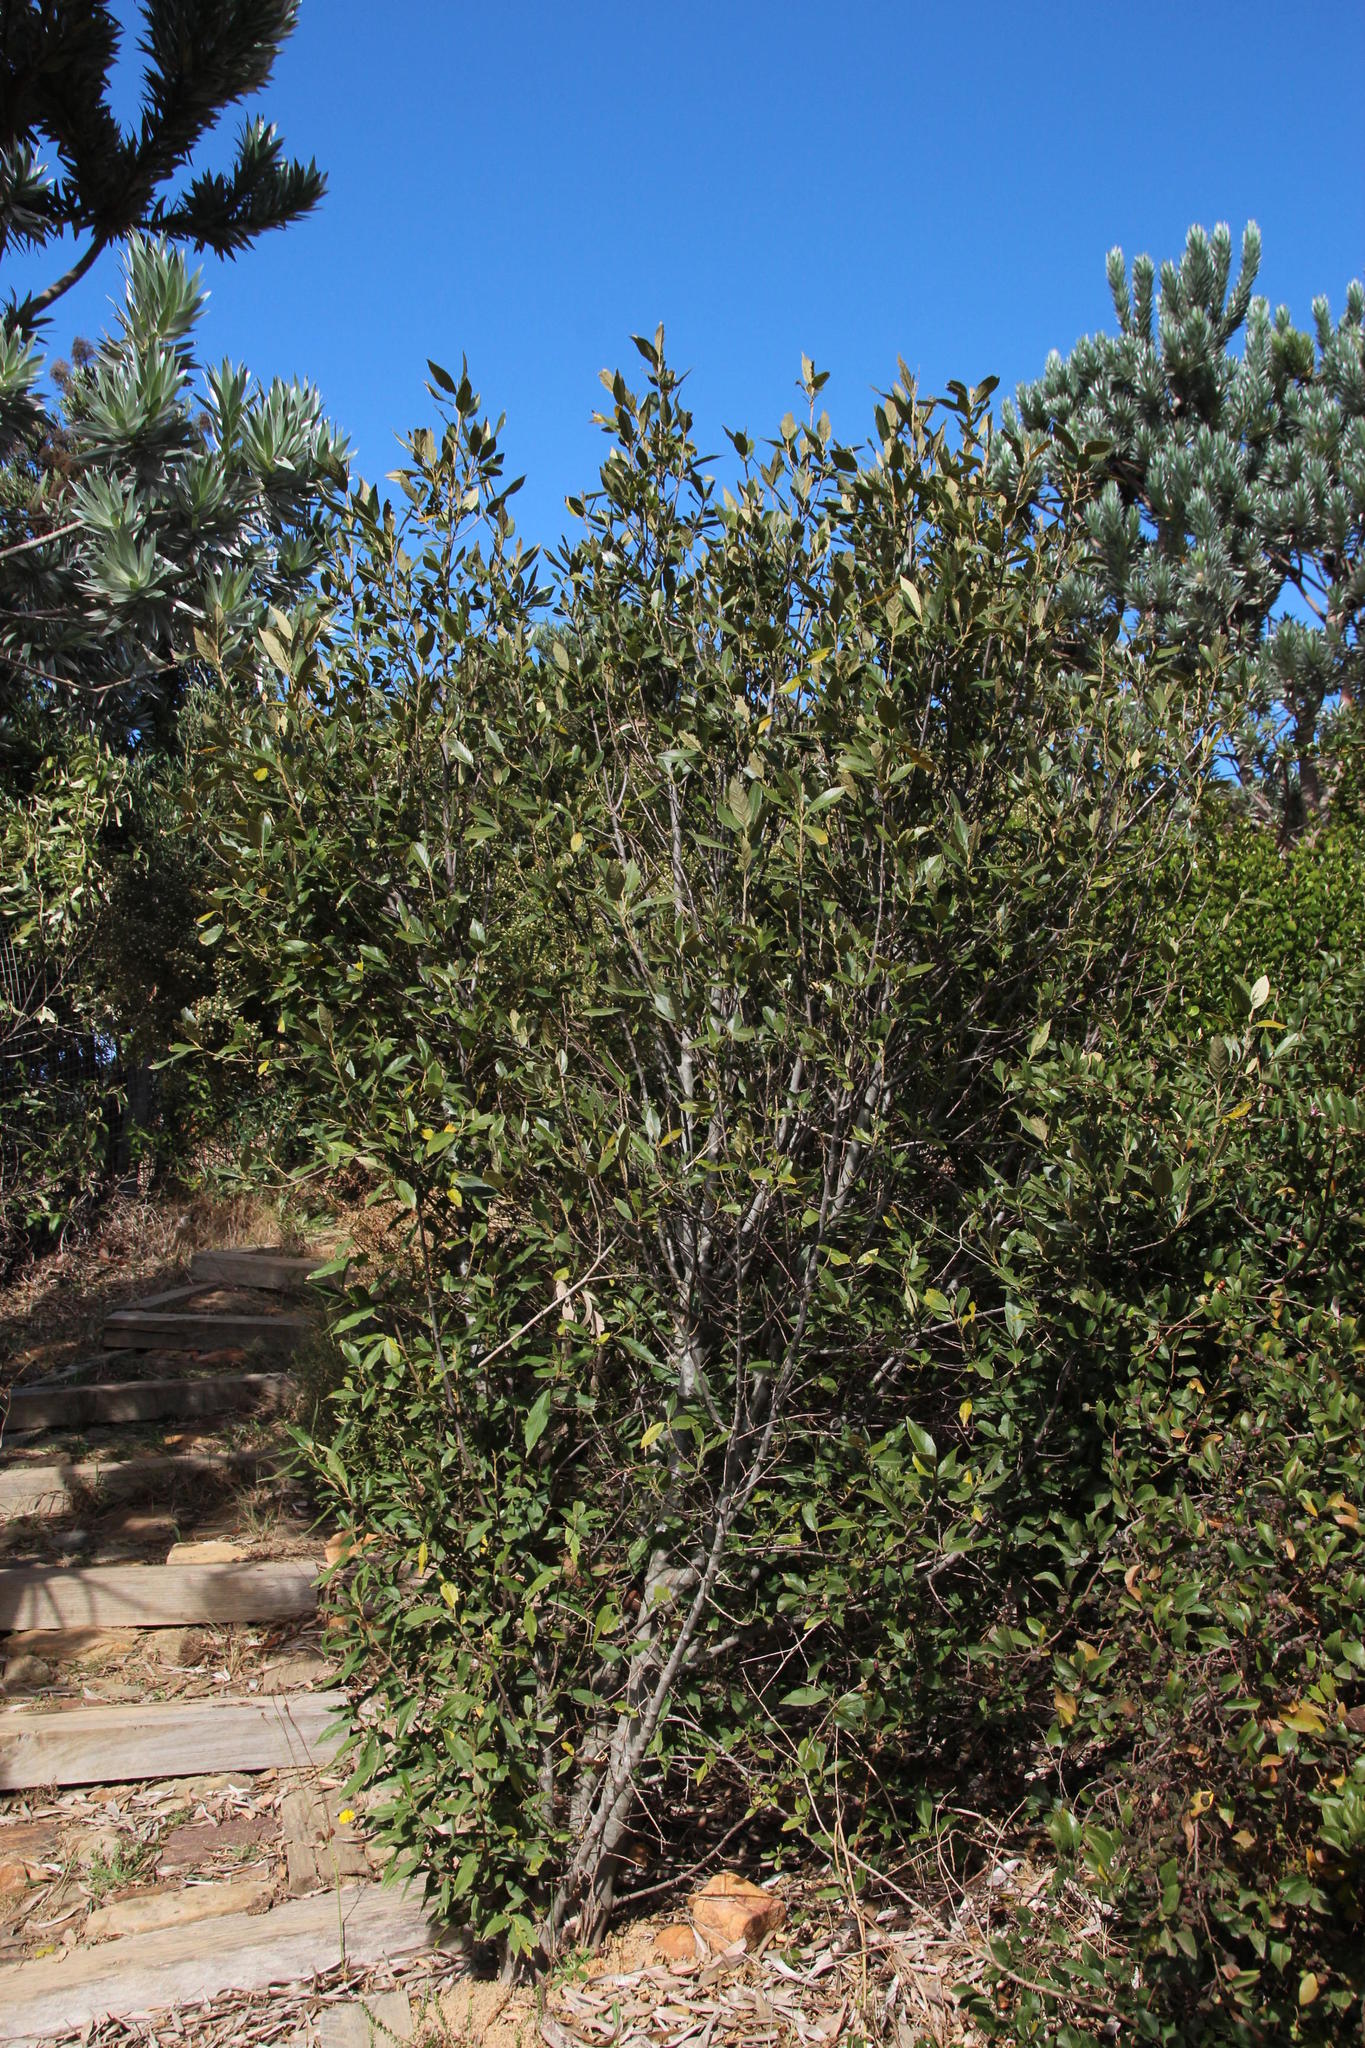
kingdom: Plantae
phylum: Tracheophyta
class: Magnoliopsida
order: Malpighiales
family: Achariaceae
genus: Kiggelaria
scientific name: Kiggelaria africana
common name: Wild peach
